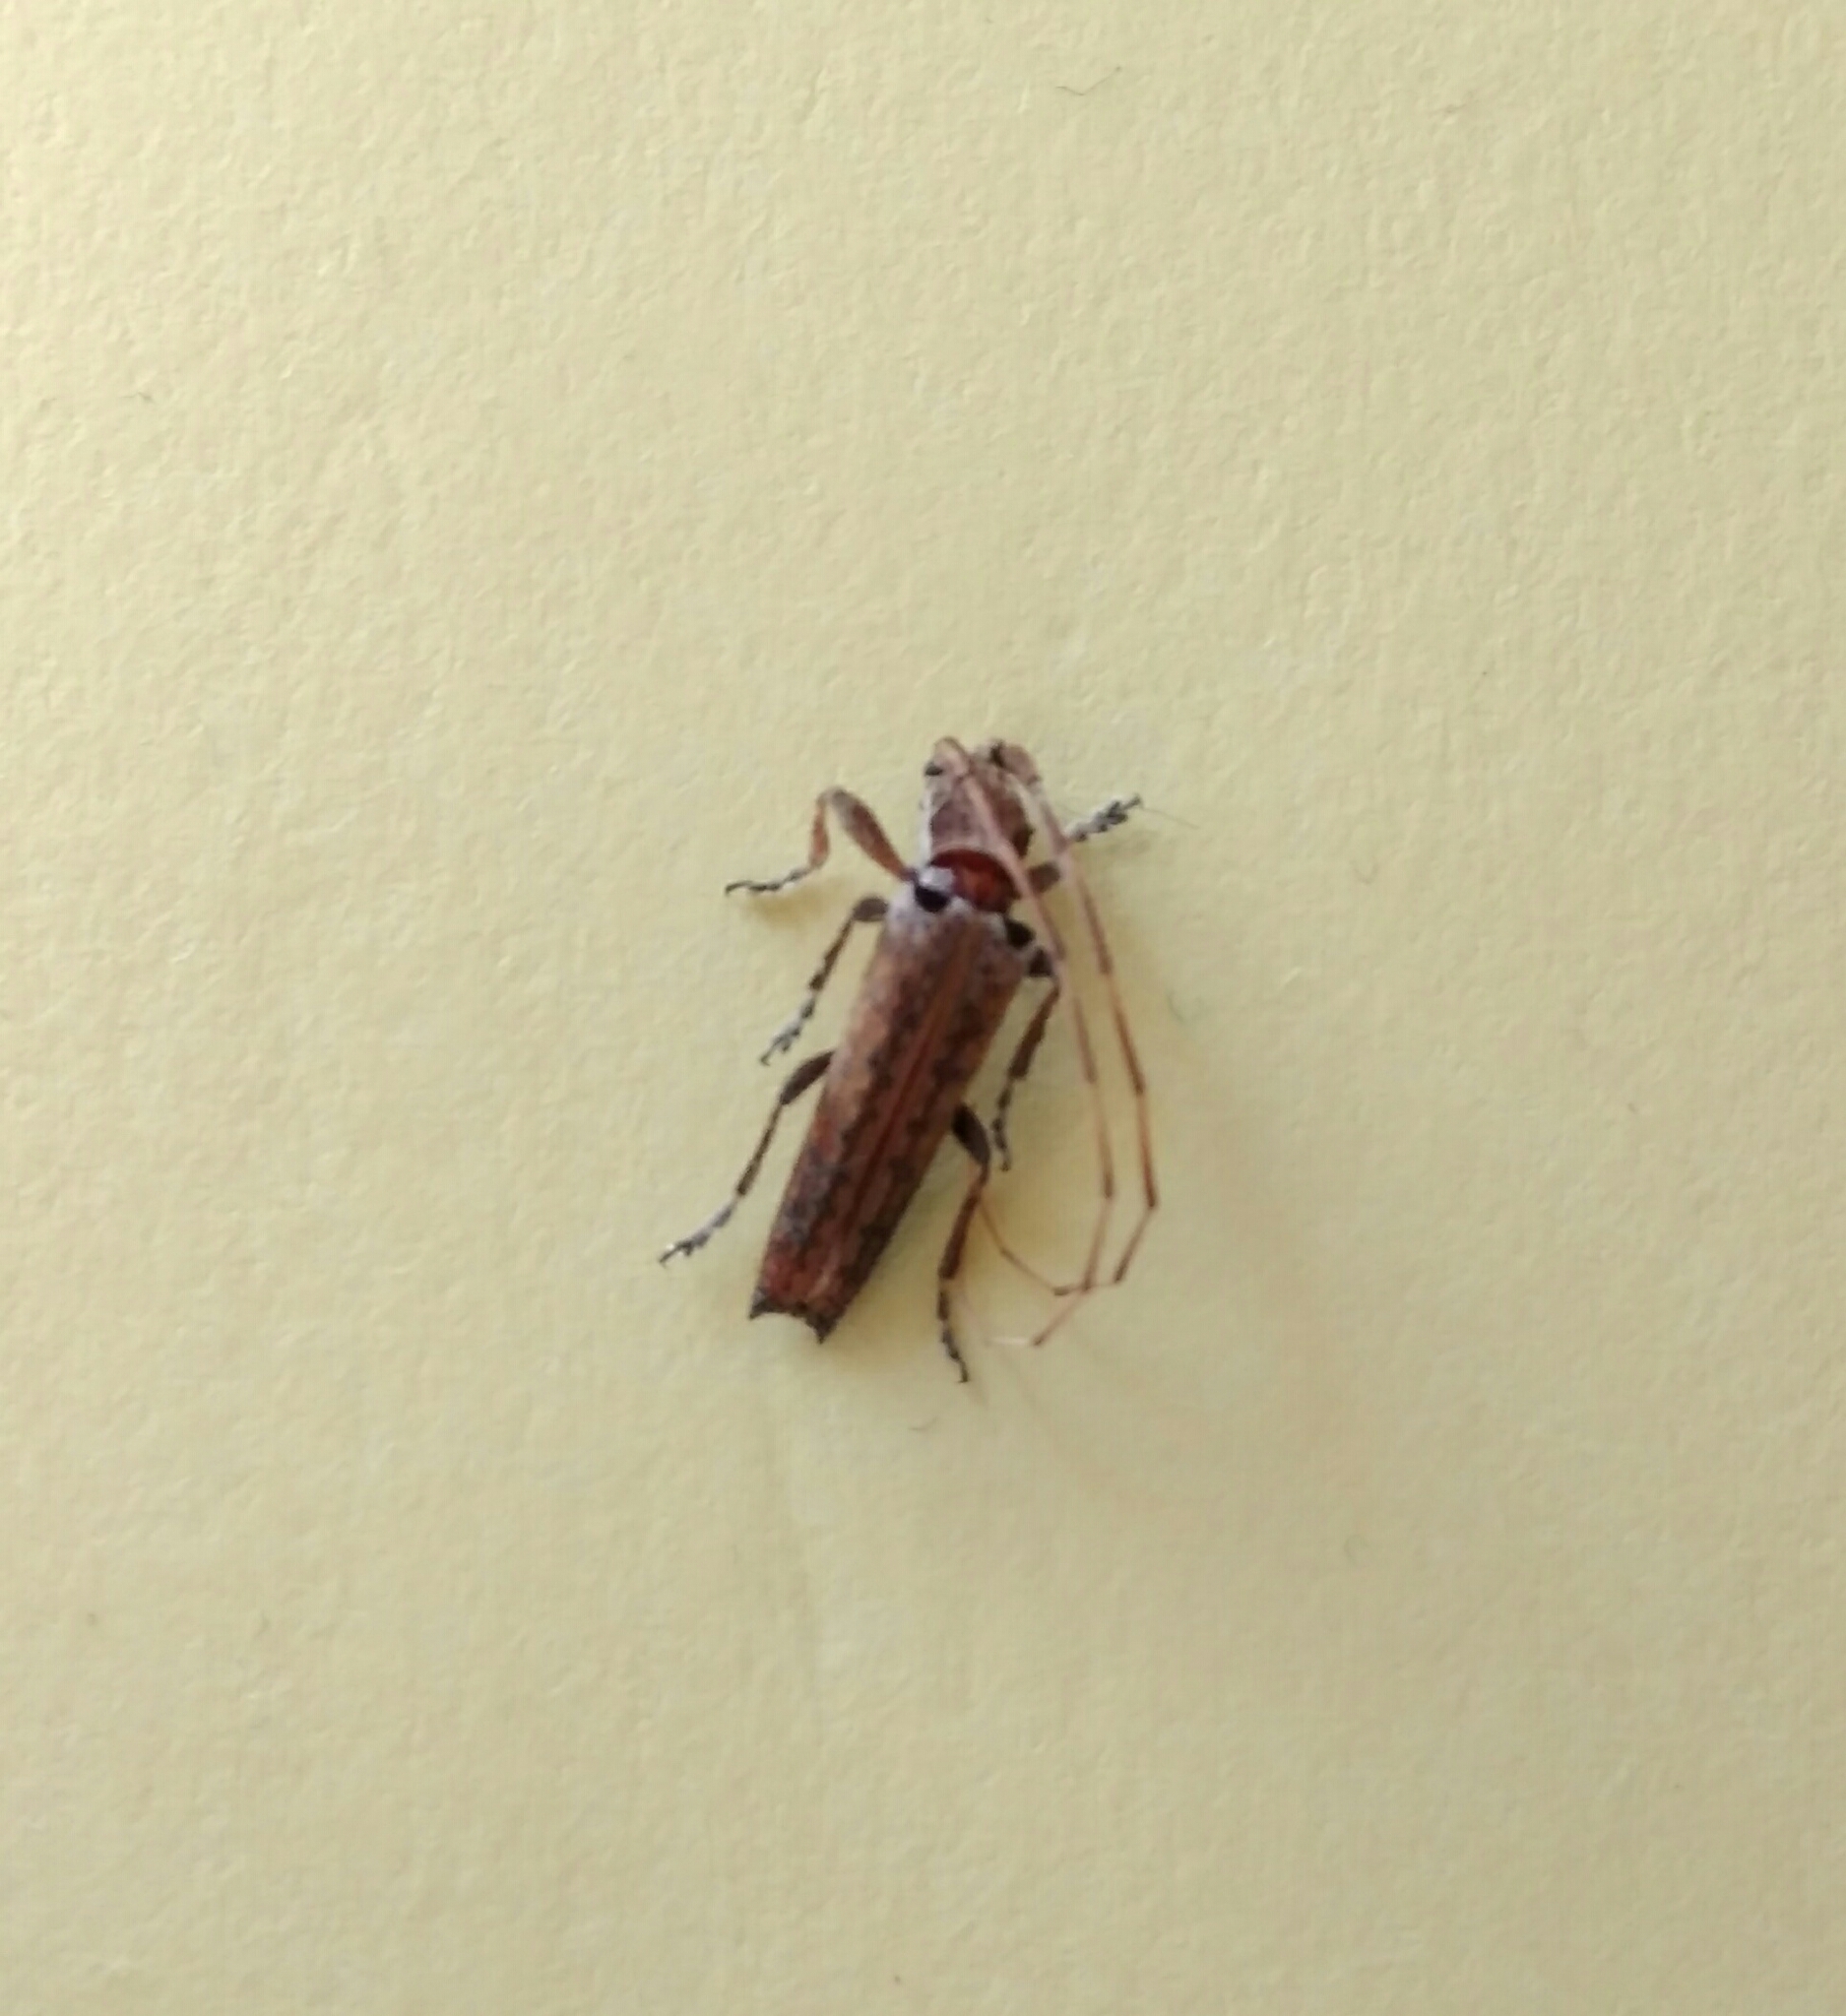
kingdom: Animalia
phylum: Arthropoda
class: Insecta
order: Coleoptera
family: Cerambycidae
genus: Neohebestola
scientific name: Neohebestola humeralis
